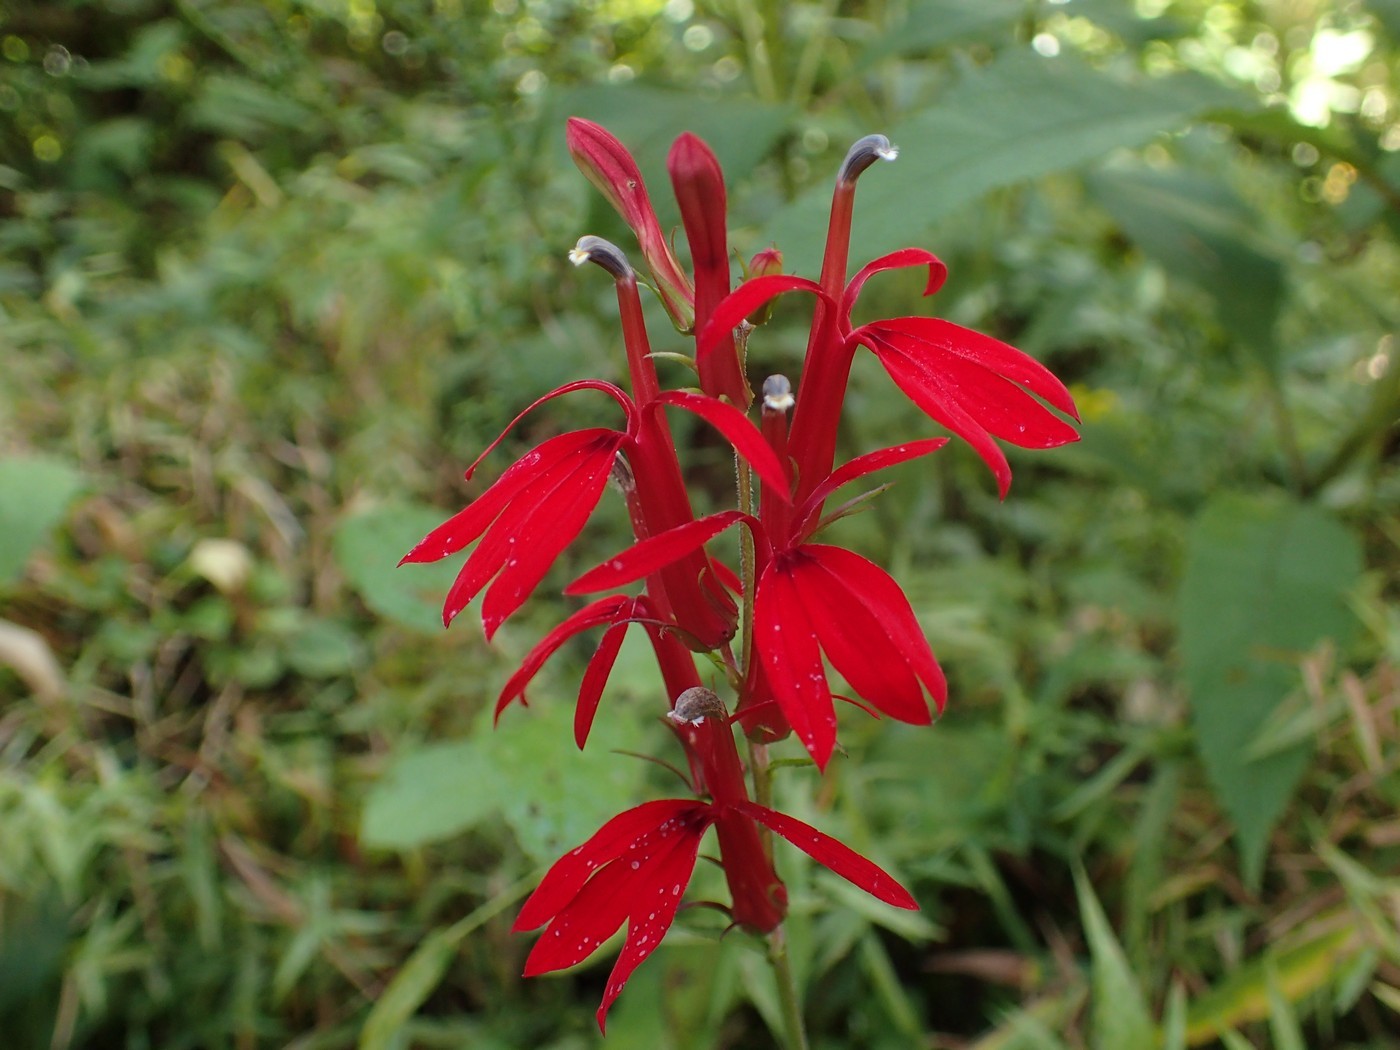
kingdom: Plantae
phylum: Tracheophyta
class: Magnoliopsida
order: Asterales
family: Campanulaceae
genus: Lobelia
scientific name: Lobelia cardinalis
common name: Cardinal flower
